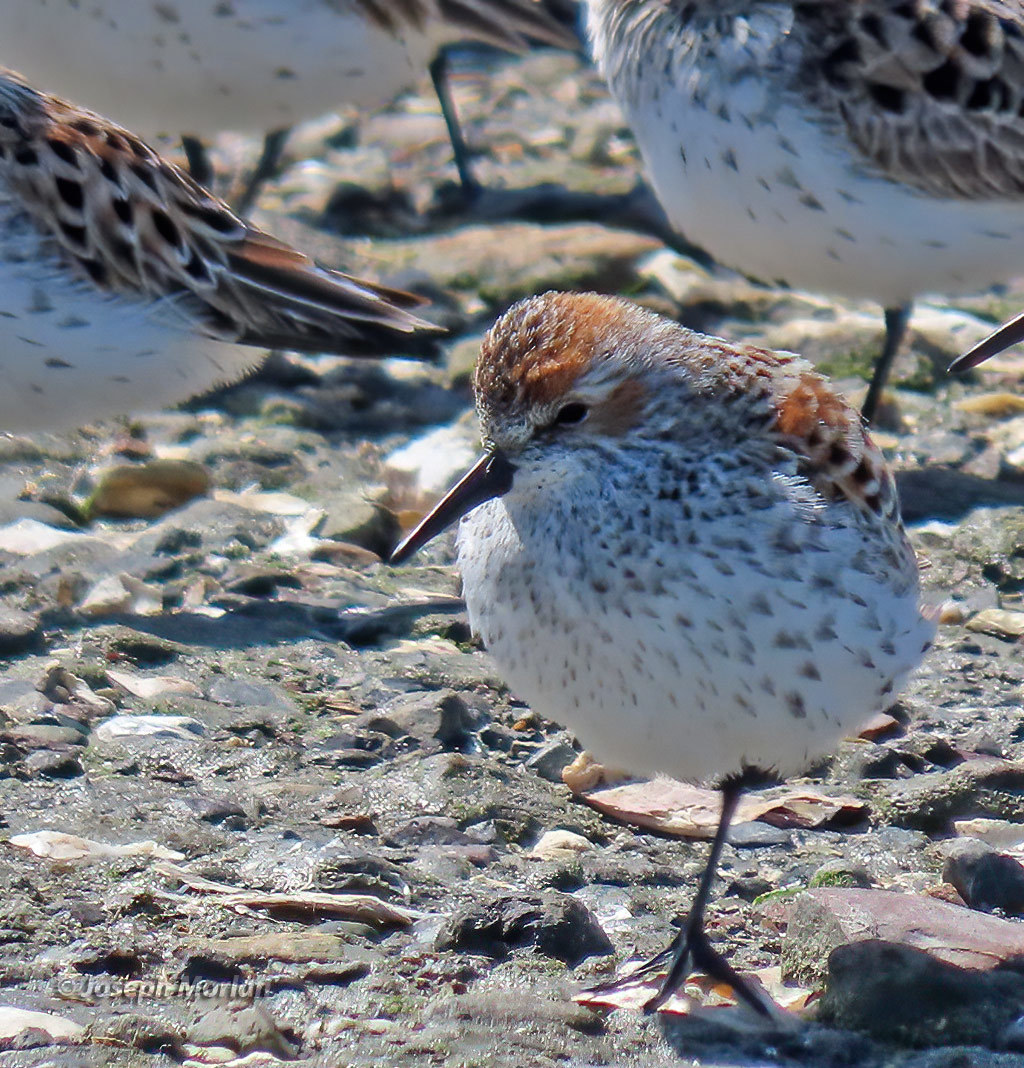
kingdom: Animalia
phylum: Chordata
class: Aves
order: Charadriiformes
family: Scolopacidae
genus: Calidris
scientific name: Calidris mauri
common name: Western sandpiper
